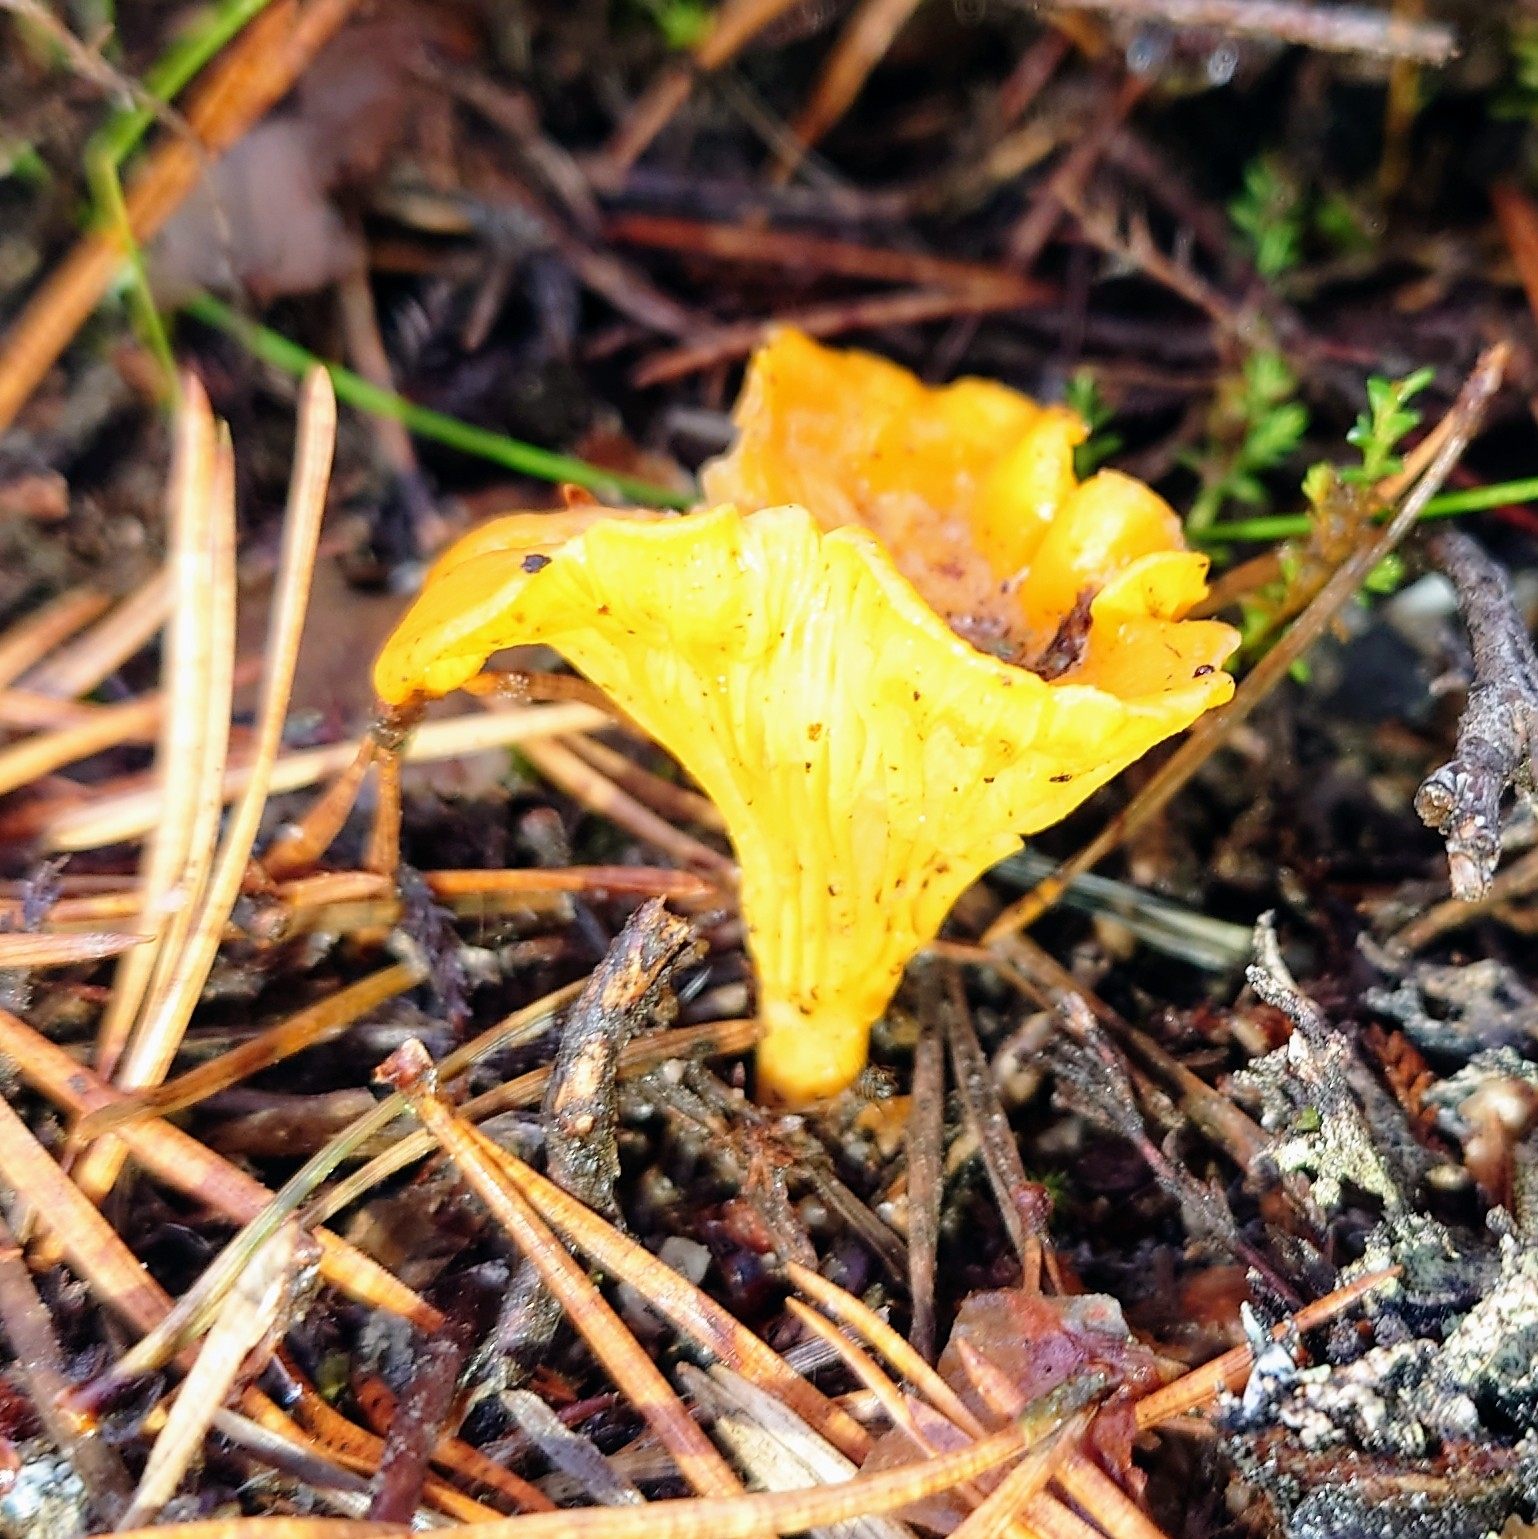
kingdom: Fungi
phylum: Basidiomycota
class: Agaricomycetes
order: Cantharellales
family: Hydnaceae
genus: Cantharellus
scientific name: Cantharellus cibarius
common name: Chanterelle
